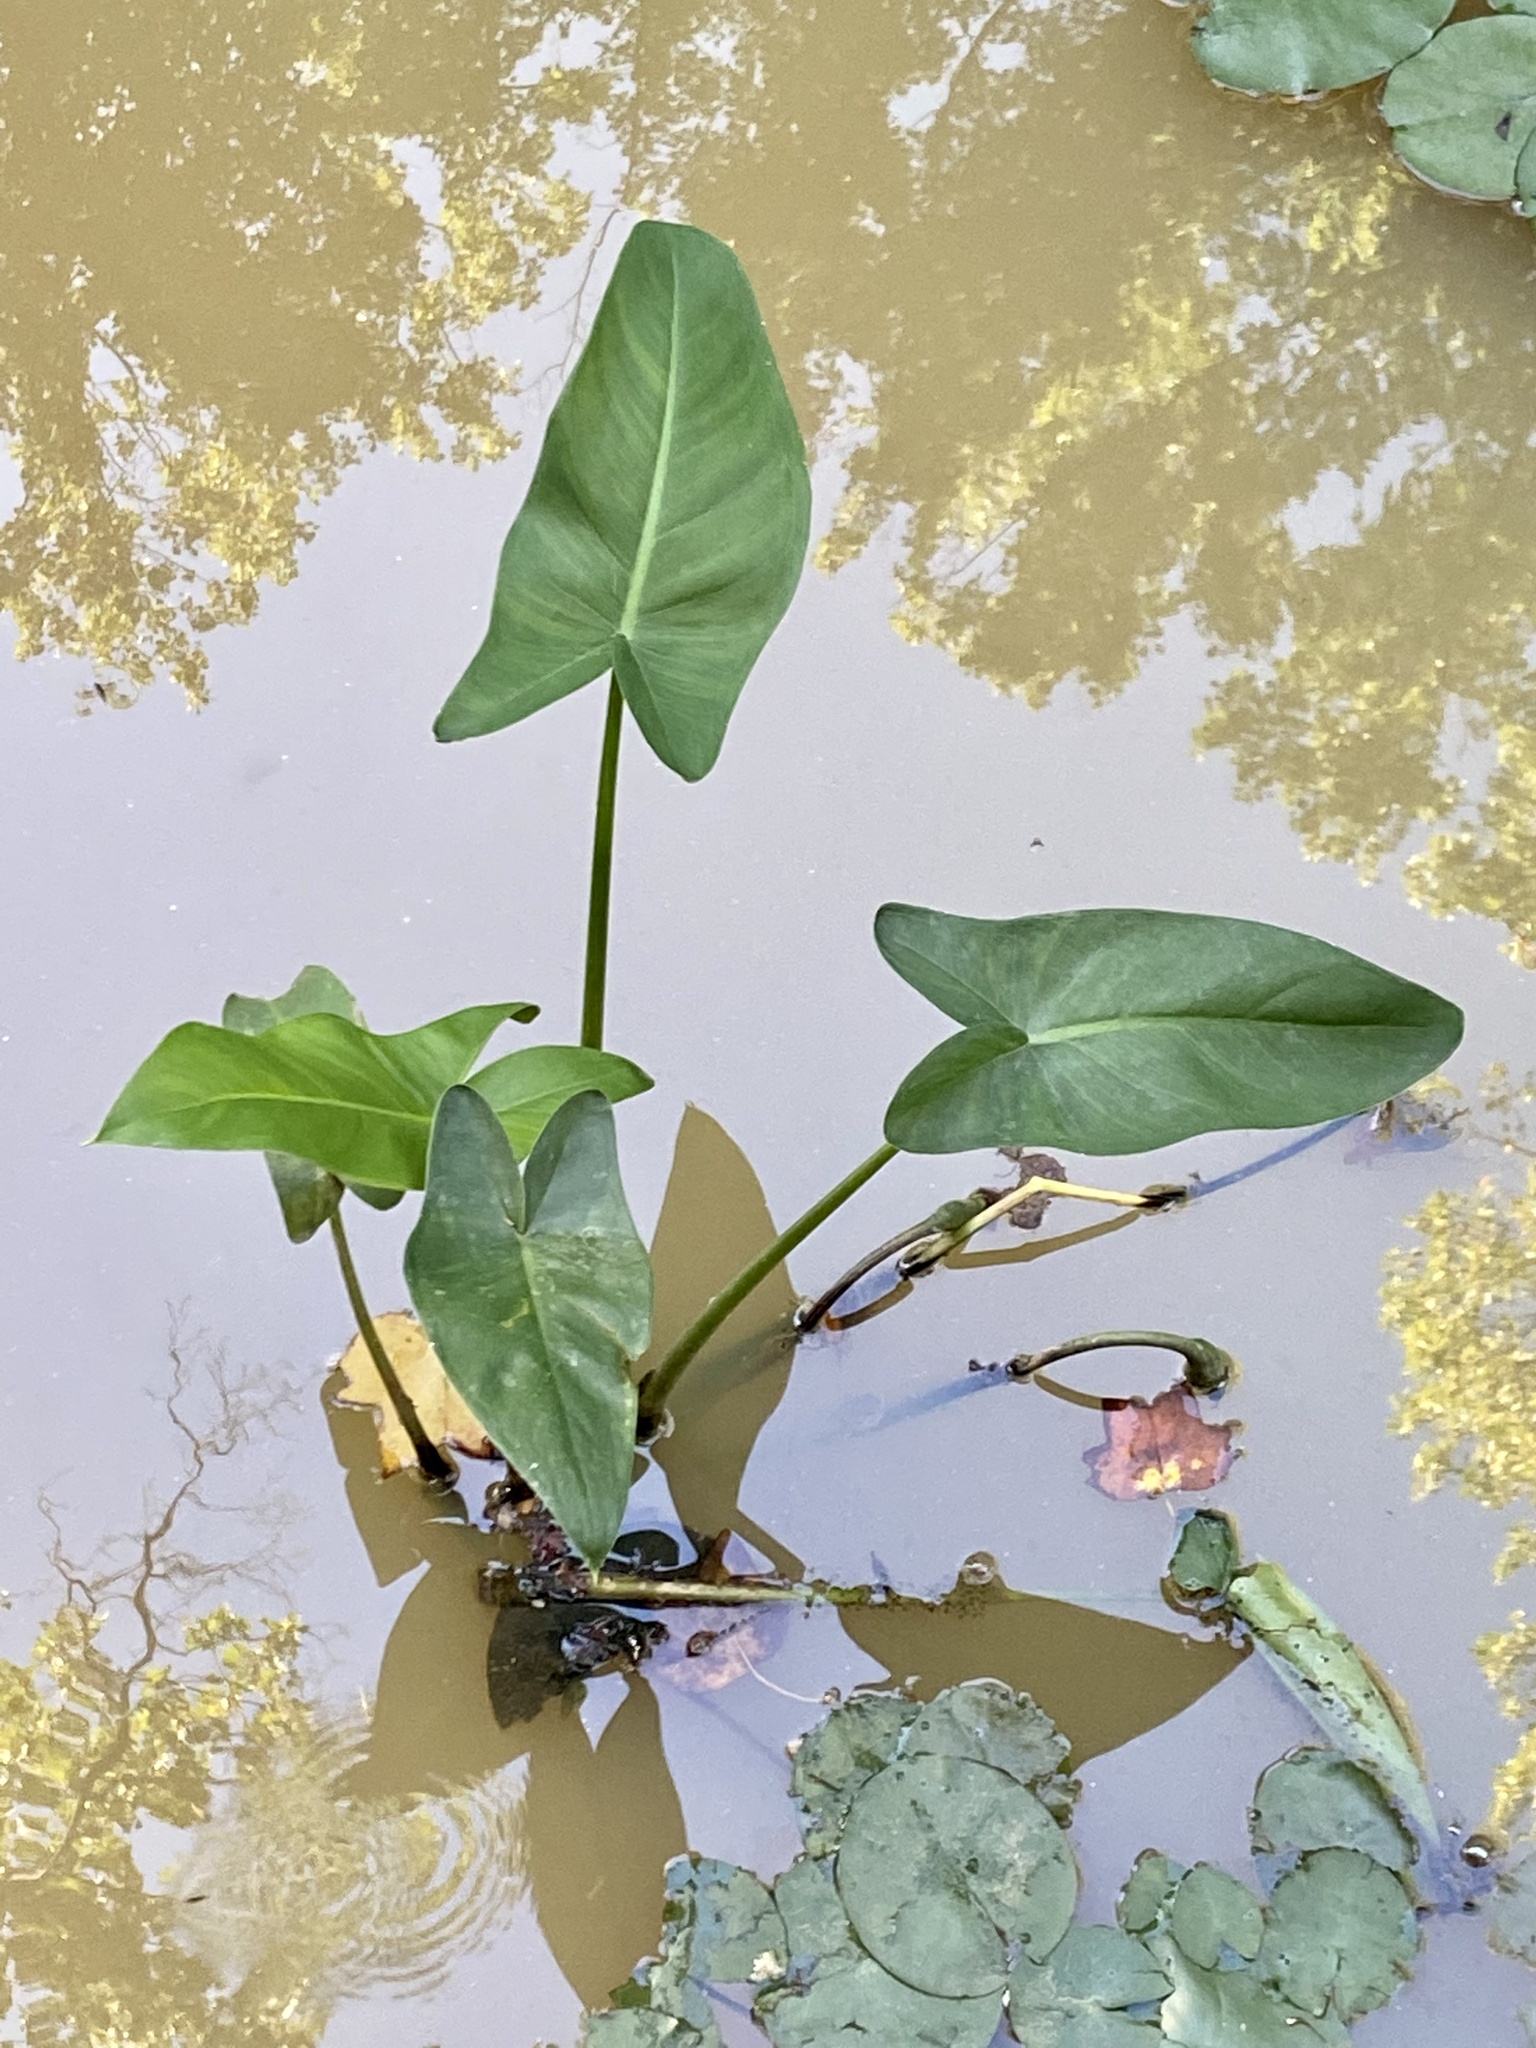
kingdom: Plantae
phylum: Tracheophyta
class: Liliopsida
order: Alismatales
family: Araceae
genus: Peltandra
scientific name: Peltandra virginica
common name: Arrow arum
